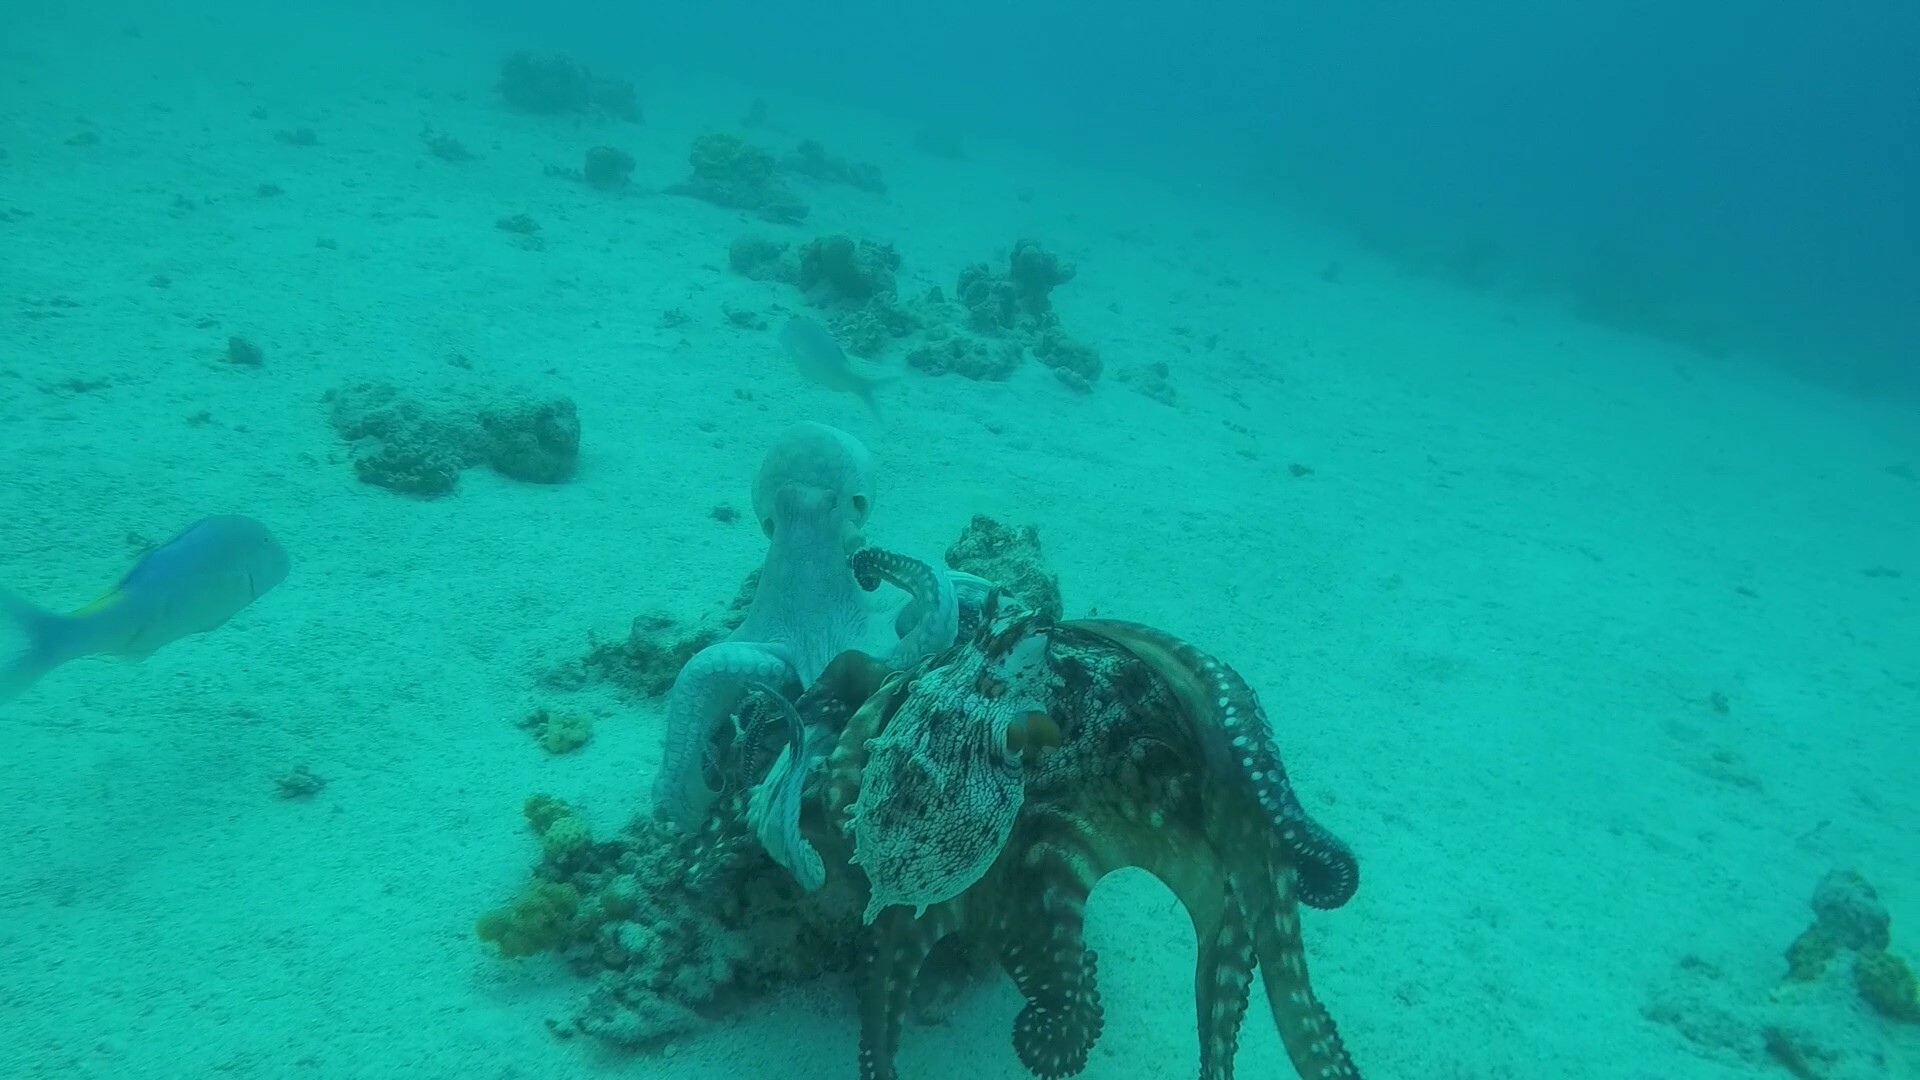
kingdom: Animalia
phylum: Mollusca
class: Cephalopoda
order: Octopoda
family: Octopodidae
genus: Octopus
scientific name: Octopus cyanea
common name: Cyane's octopus
